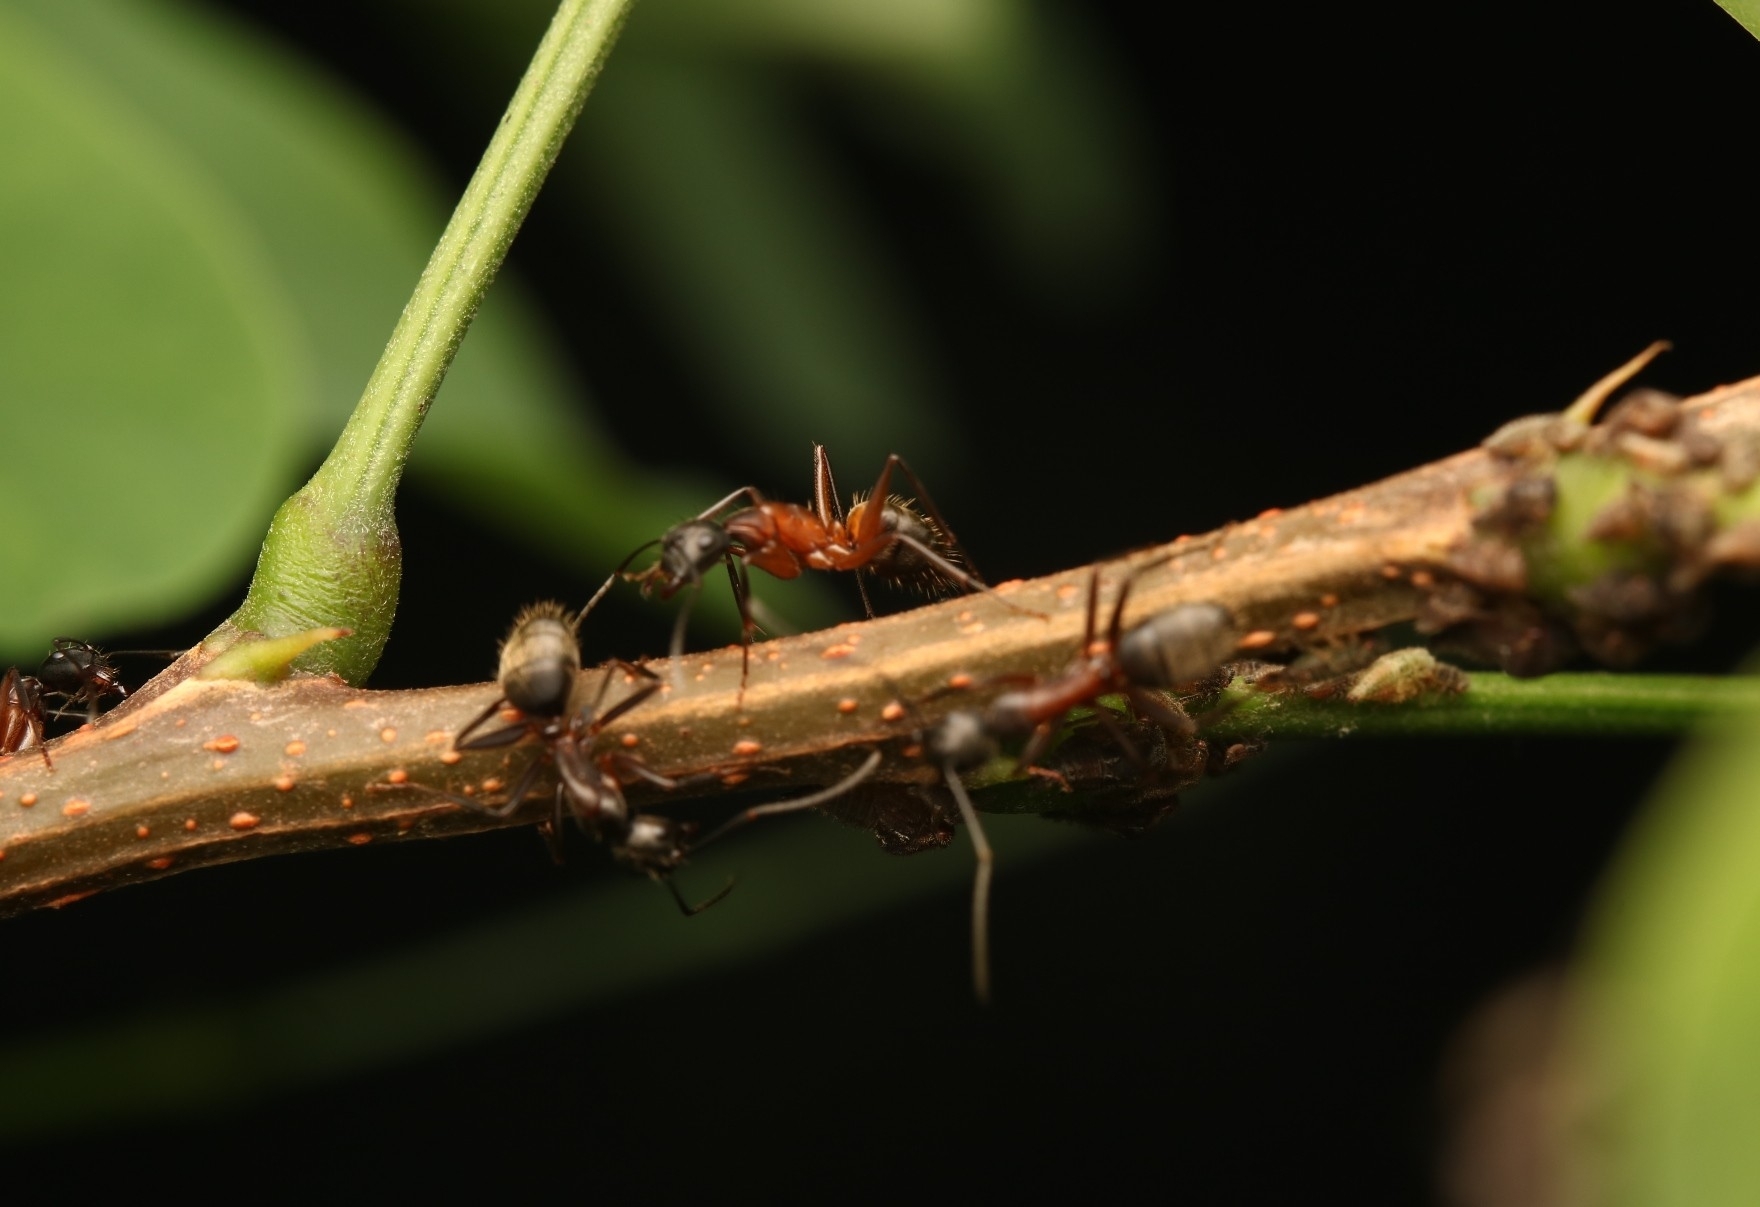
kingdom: Animalia
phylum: Arthropoda
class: Insecta
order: Hymenoptera
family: Formicidae
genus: Camponotus
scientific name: Camponotus chromaiodes
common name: Red carpenter ant
